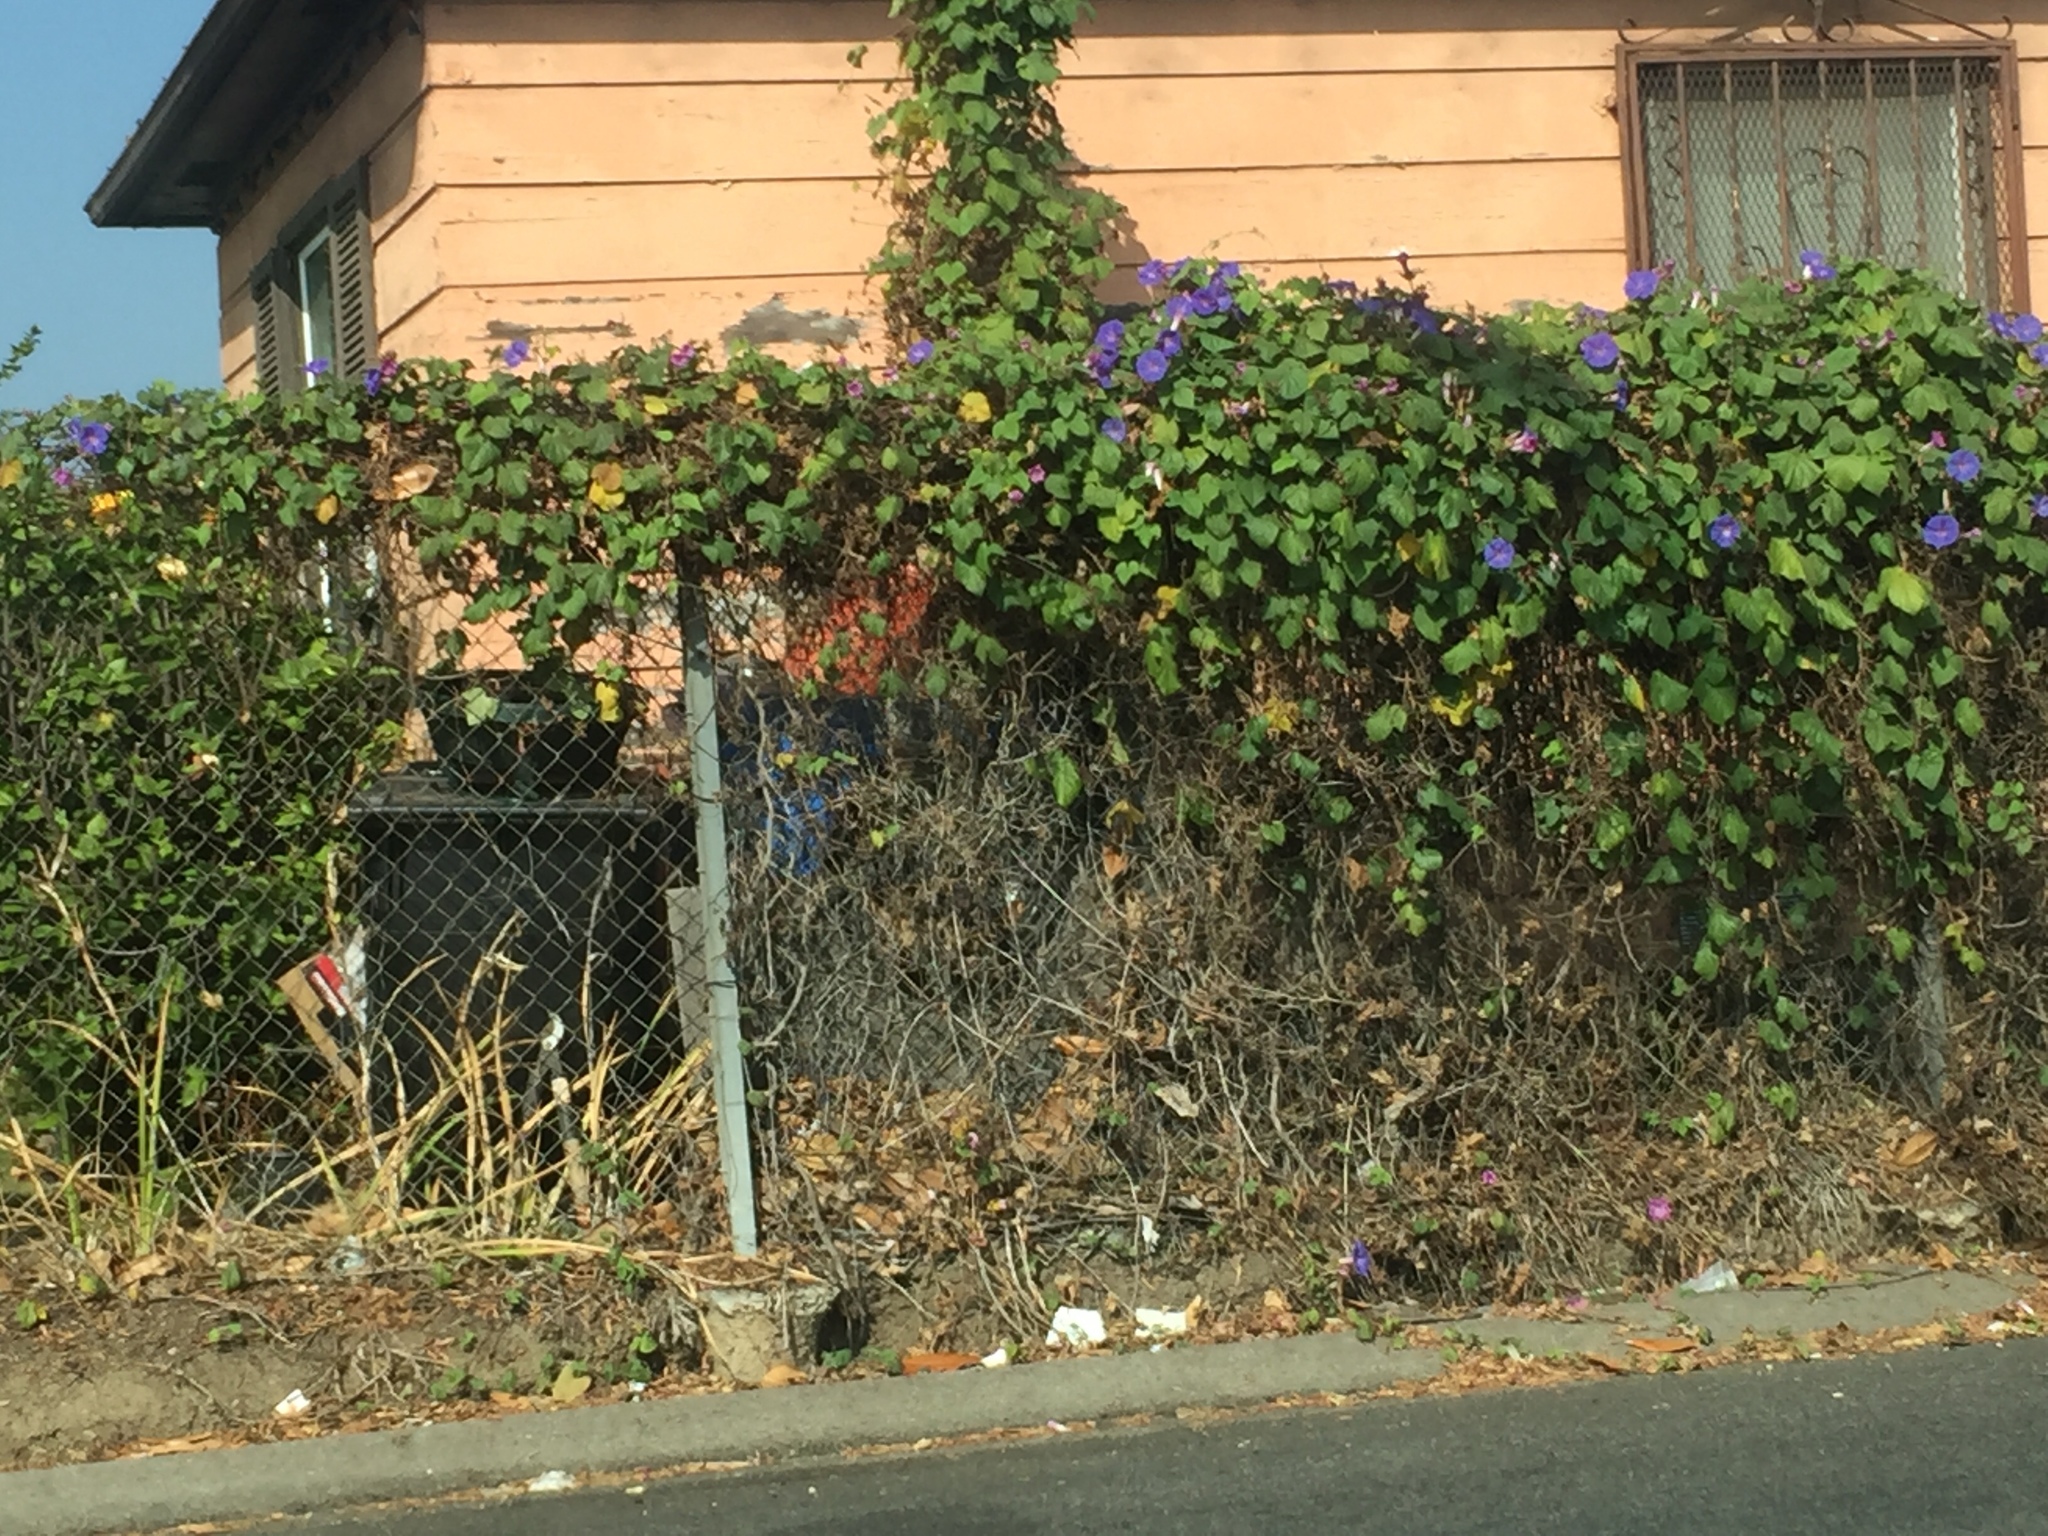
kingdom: Plantae
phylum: Tracheophyta
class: Magnoliopsida
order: Solanales
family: Convolvulaceae
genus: Ipomoea
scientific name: Ipomoea purpurea
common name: Common morning-glory
